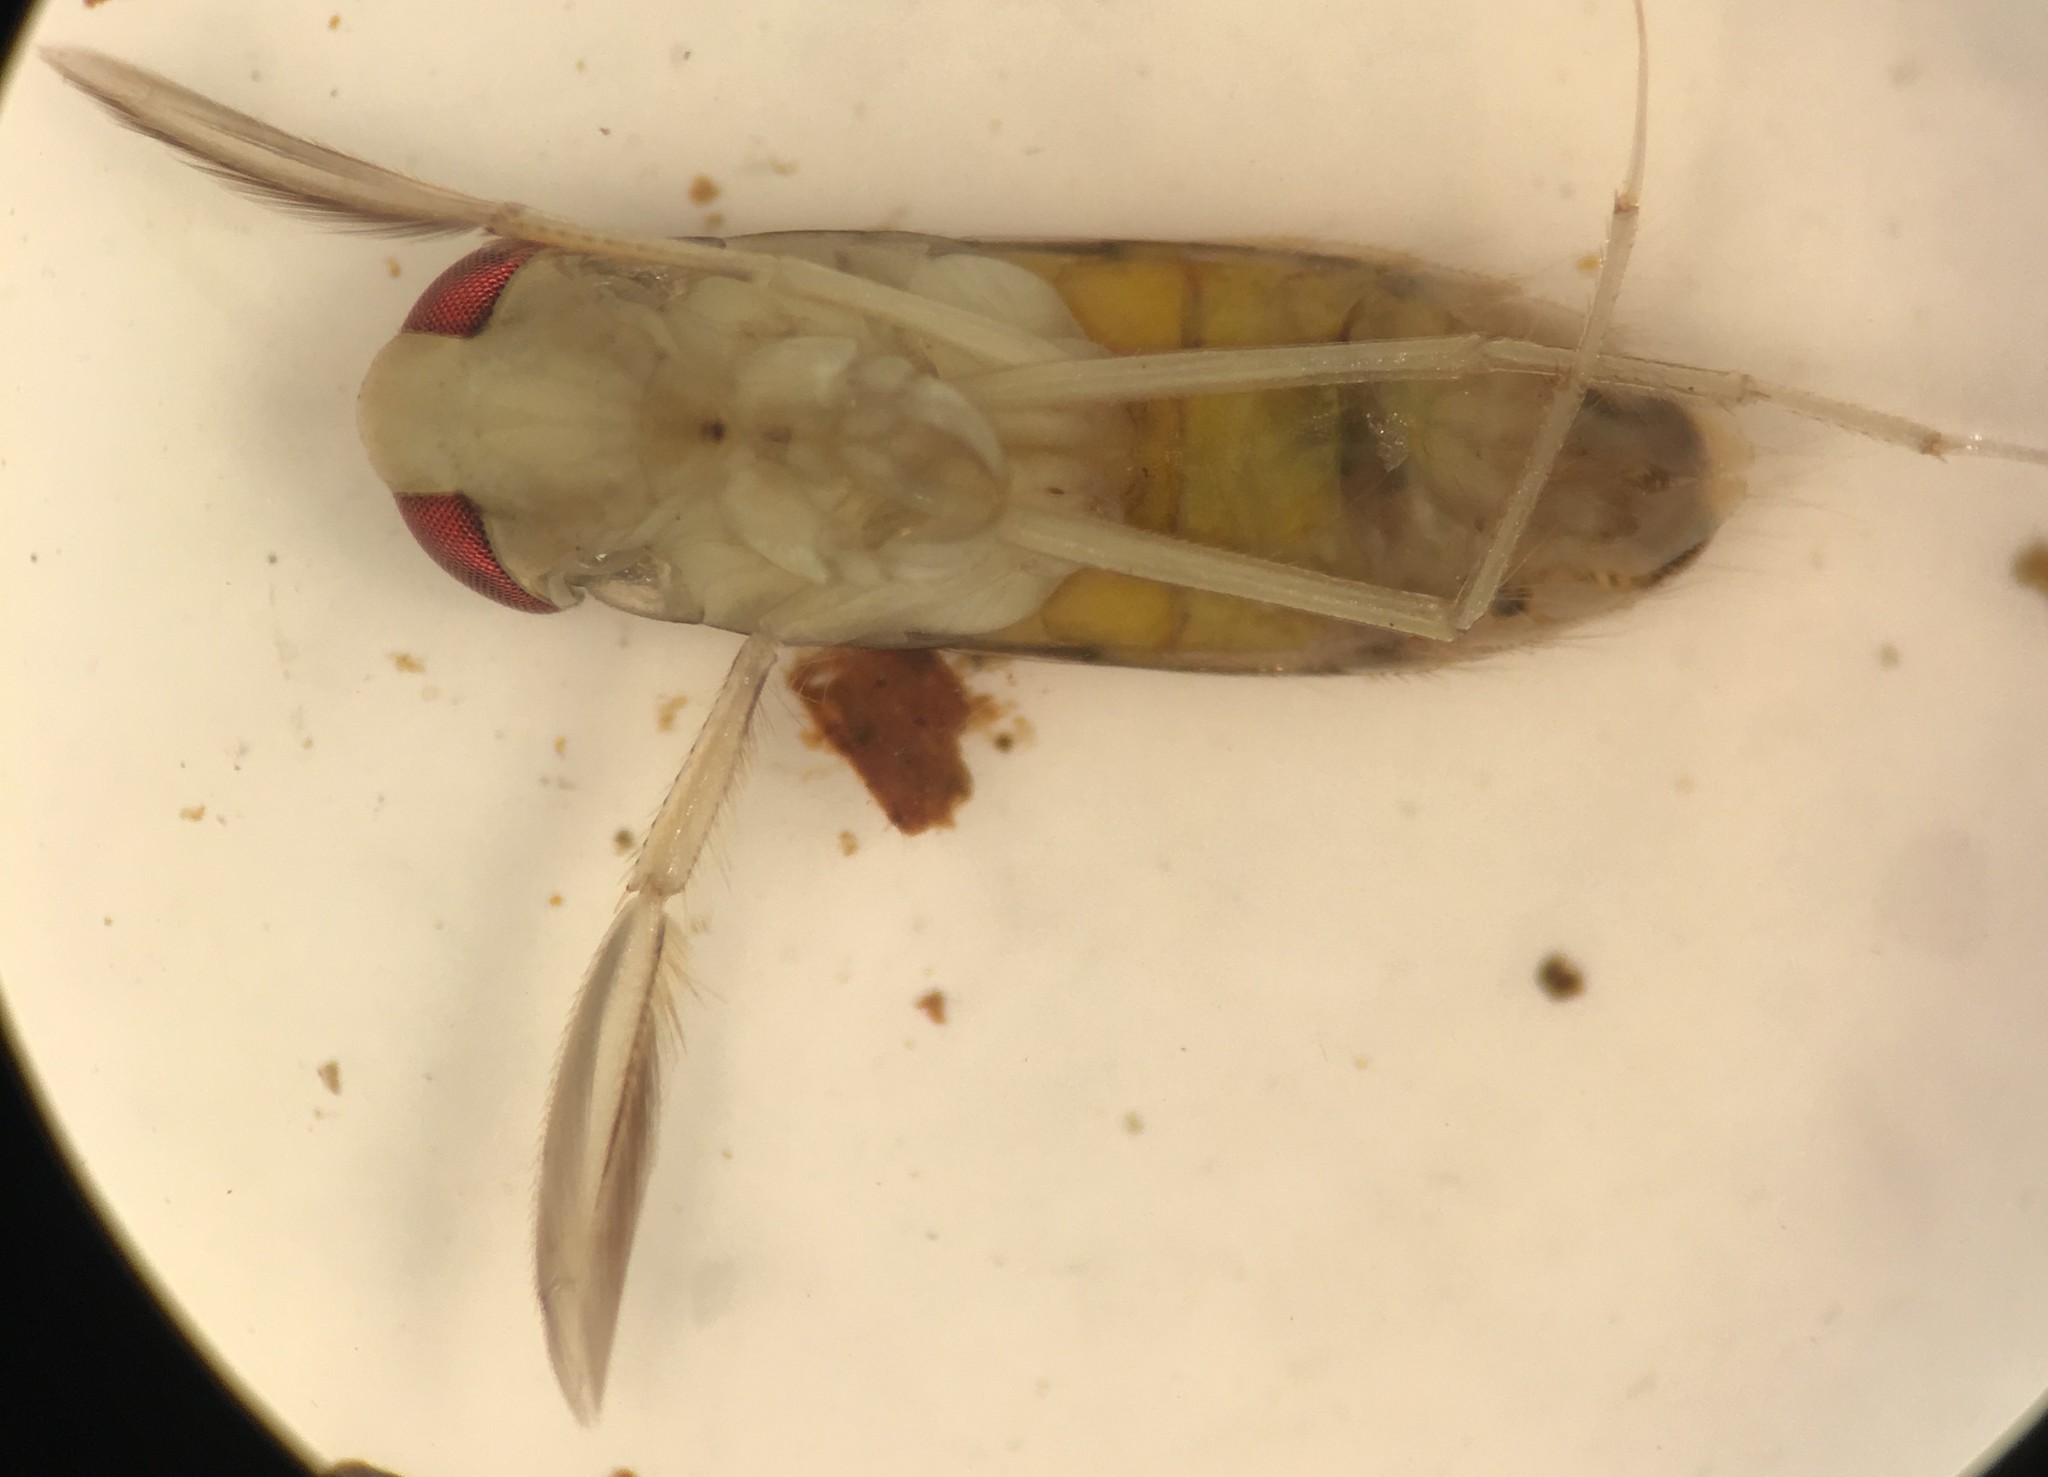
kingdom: Animalia
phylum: Arthropoda
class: Insecta
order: Hemiptera
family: Corixidae
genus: Palmacorixa
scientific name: Palmacorixa buenoi
